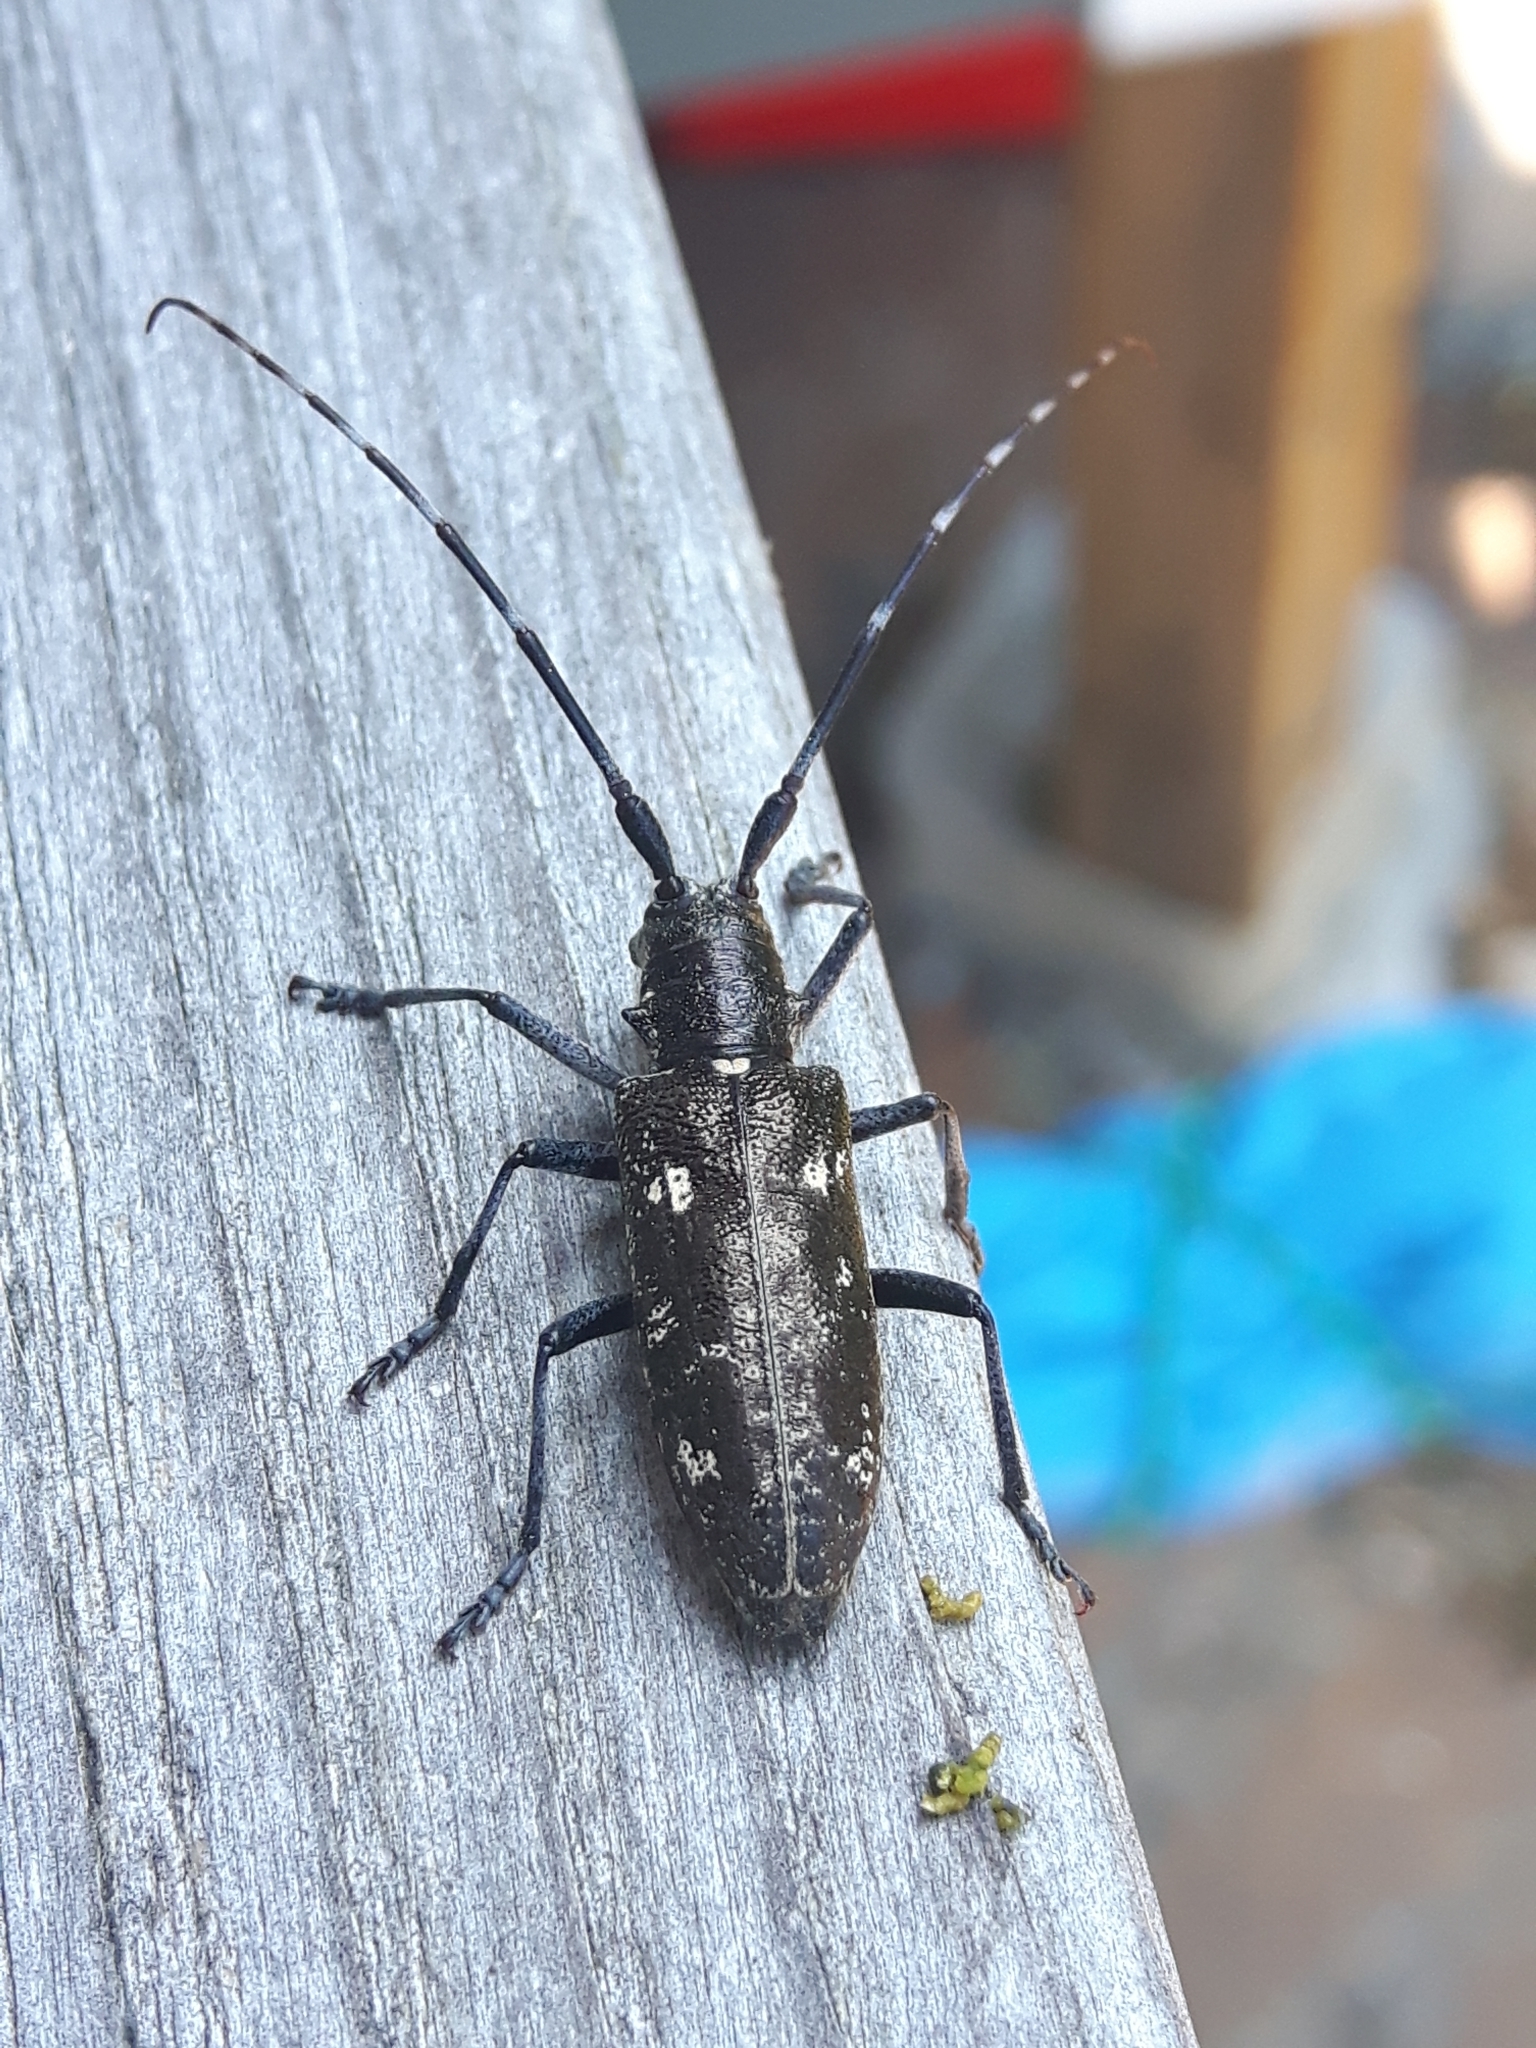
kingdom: Animalia
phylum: Arthropoda
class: Insecta
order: Coleoptera
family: Cerambycidae
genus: Monochamus
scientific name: Monochamus scutellatus
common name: White-spotted sawyer beetle
